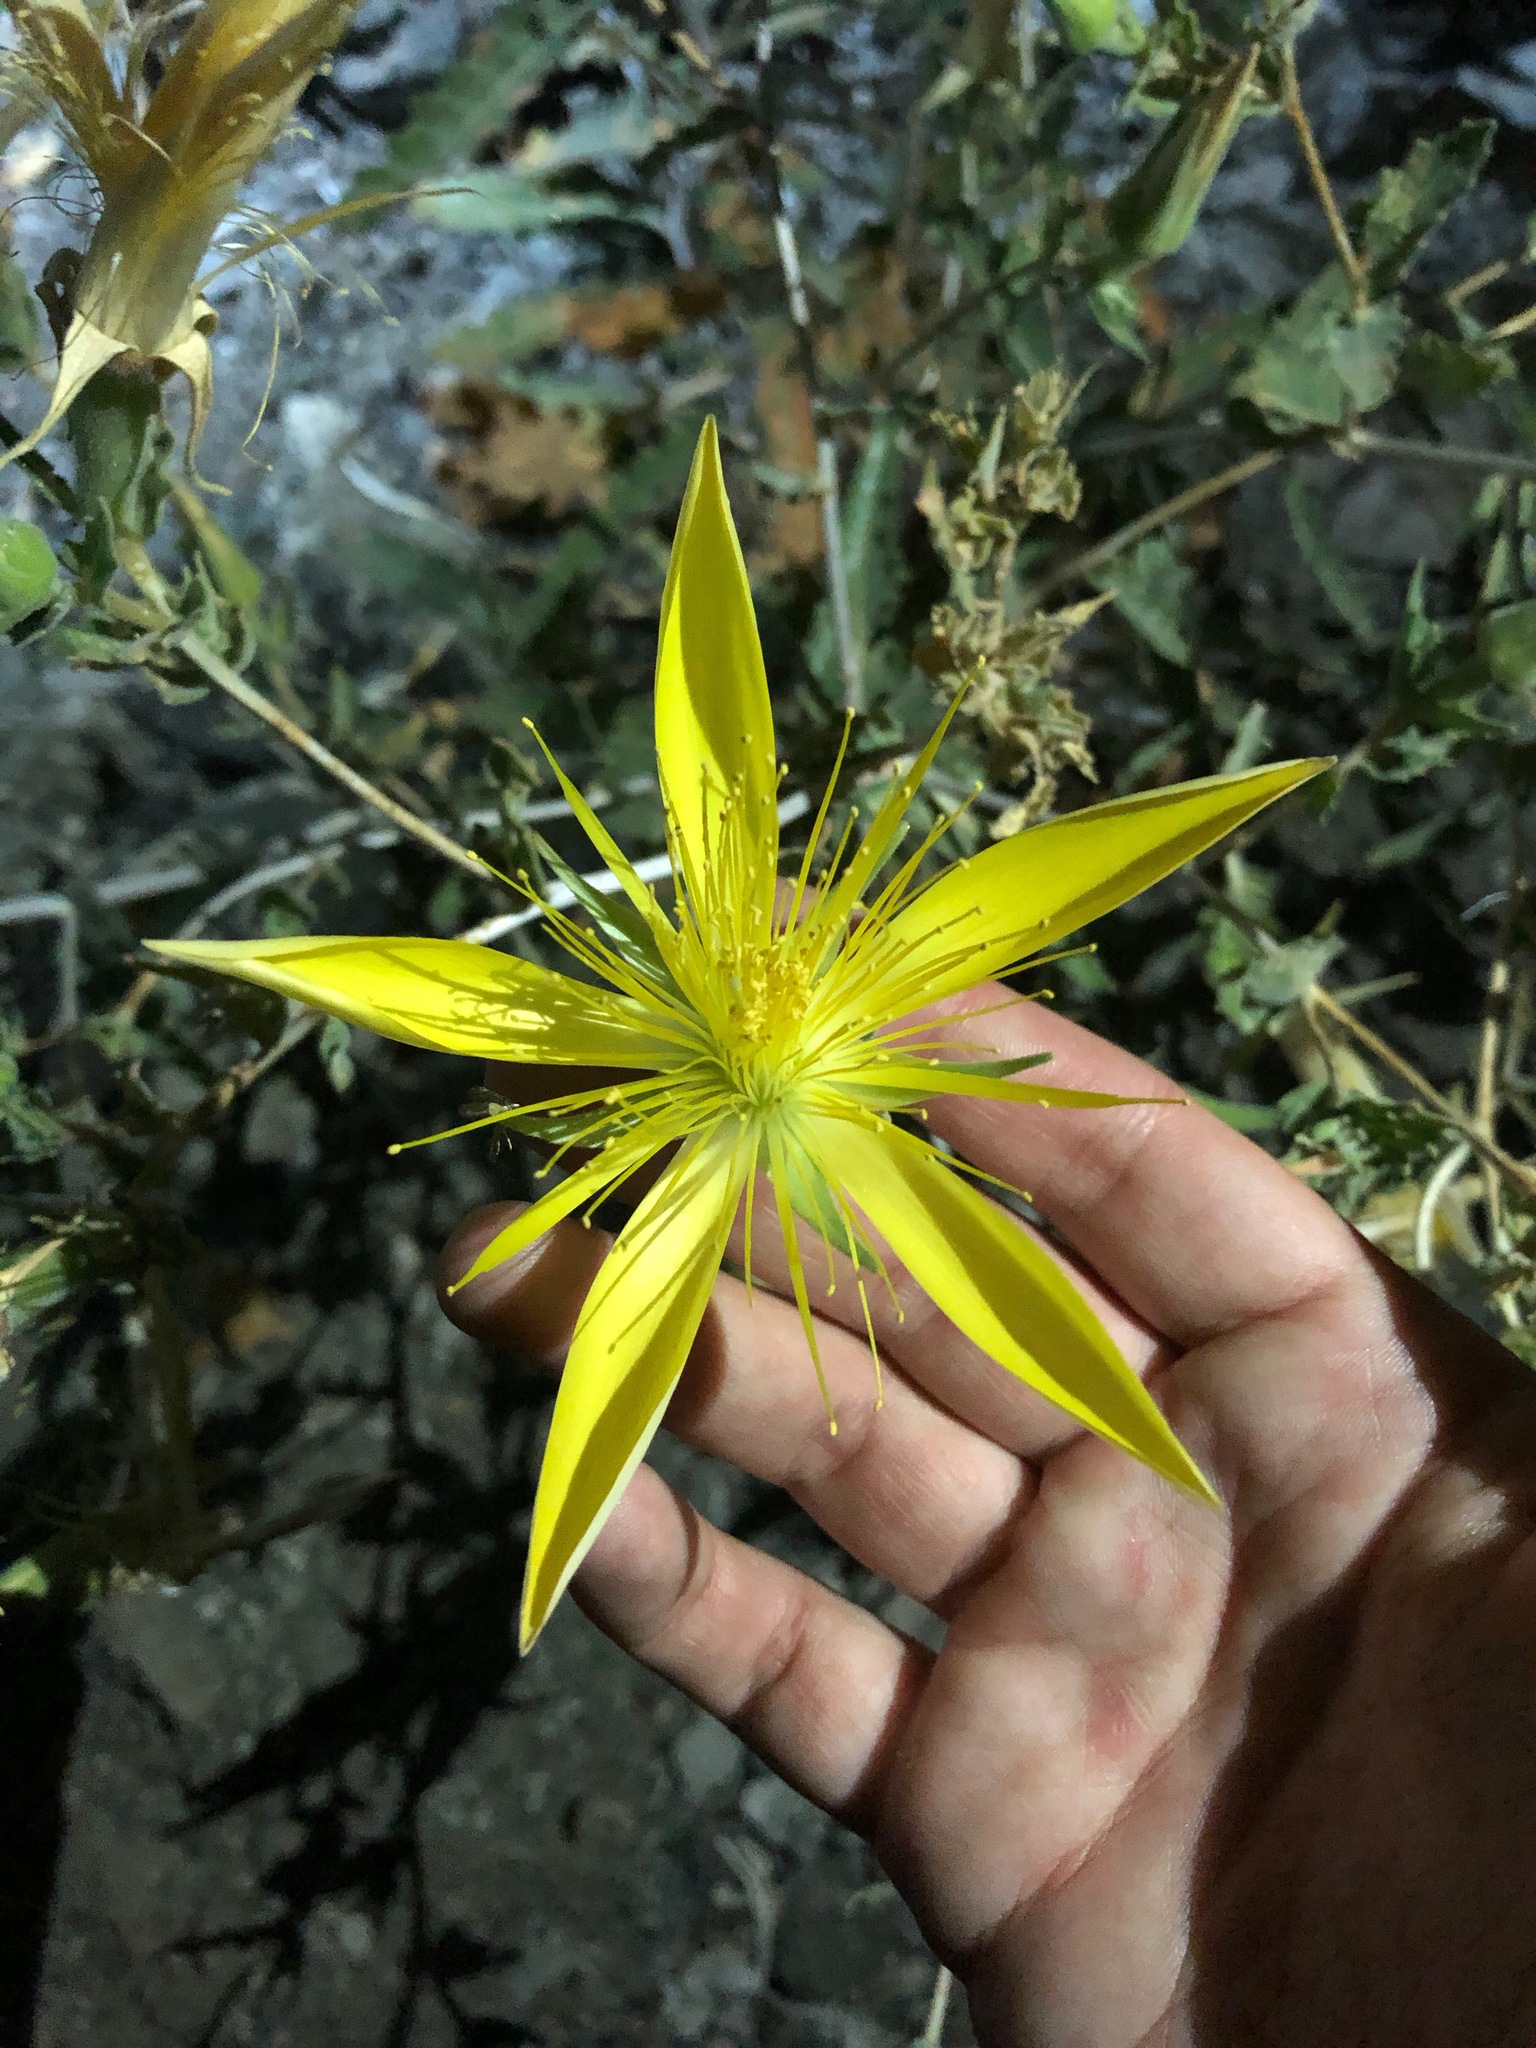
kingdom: Plantae
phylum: Tracheophyta
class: Magnoliopsida
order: Cornales
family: Loasaceae
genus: Mentzelia
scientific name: Mentzelia laevicaulis
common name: Smooth-stem blazingstar
